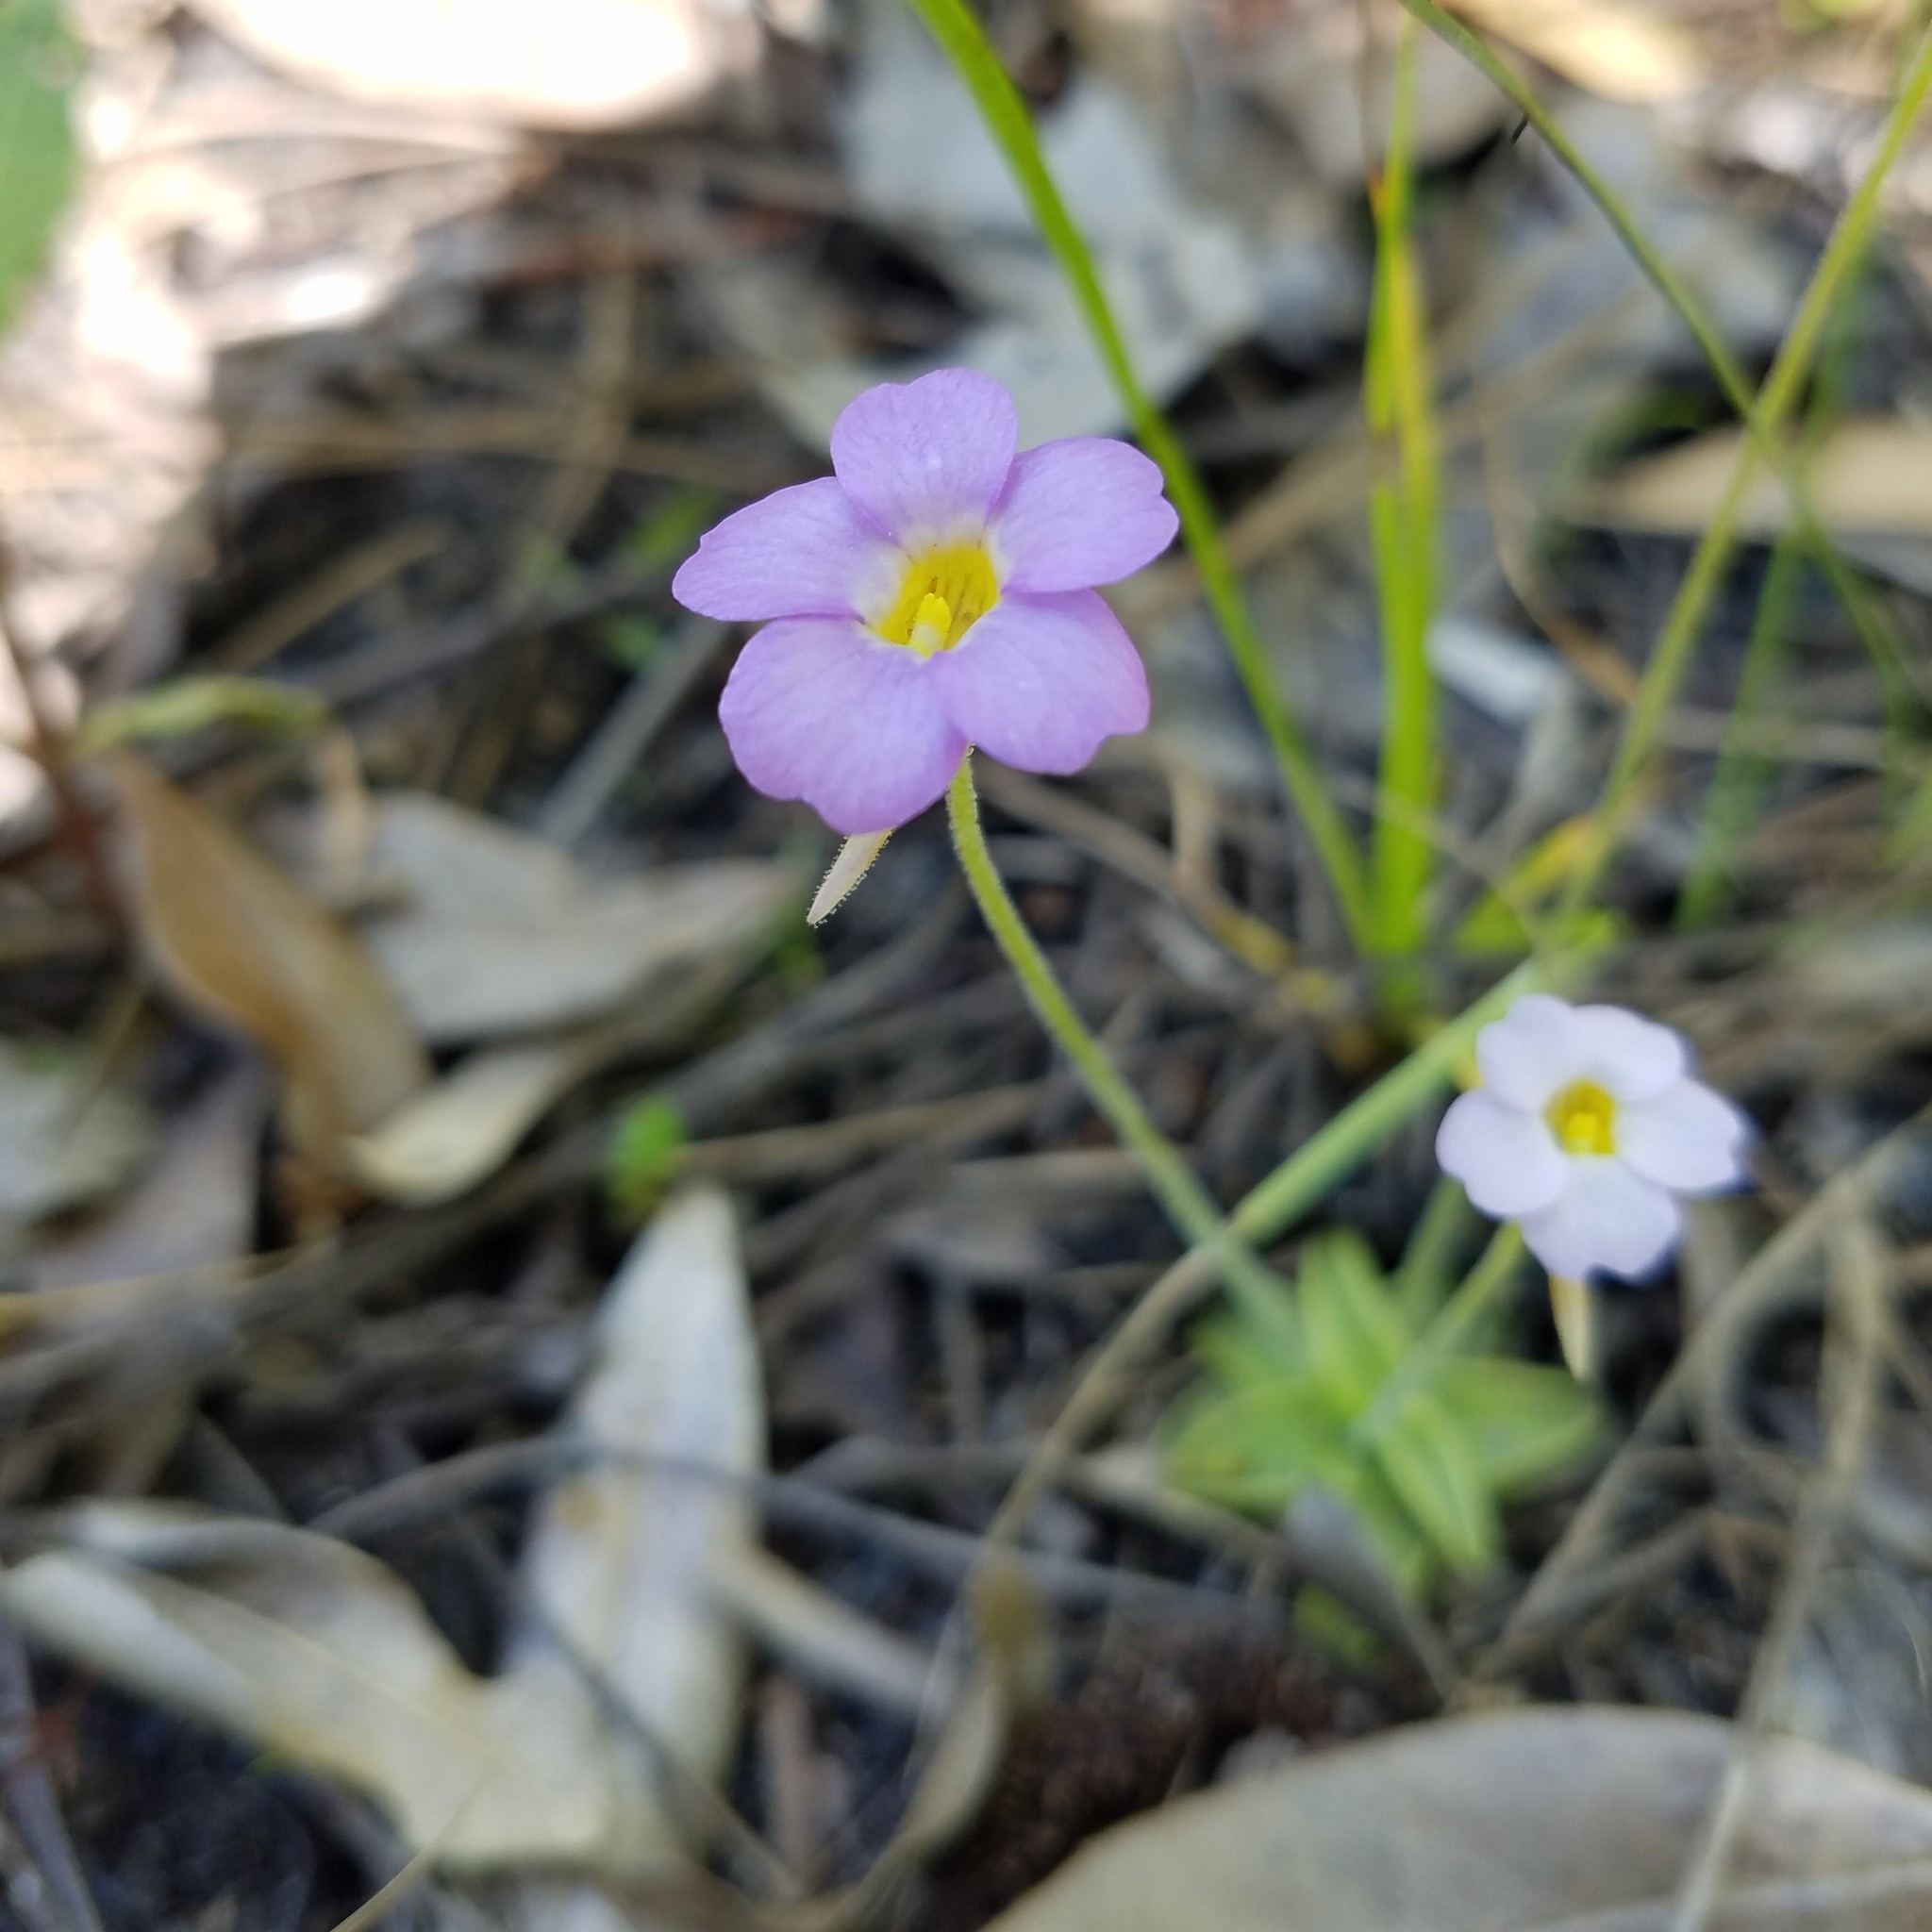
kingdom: Plantae
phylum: Tracheophyta
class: Magnoliopsida
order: Lamiales
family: Lentibulariaceae
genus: Pinguicula
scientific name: Pinguicula pumila
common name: Small butterwort
